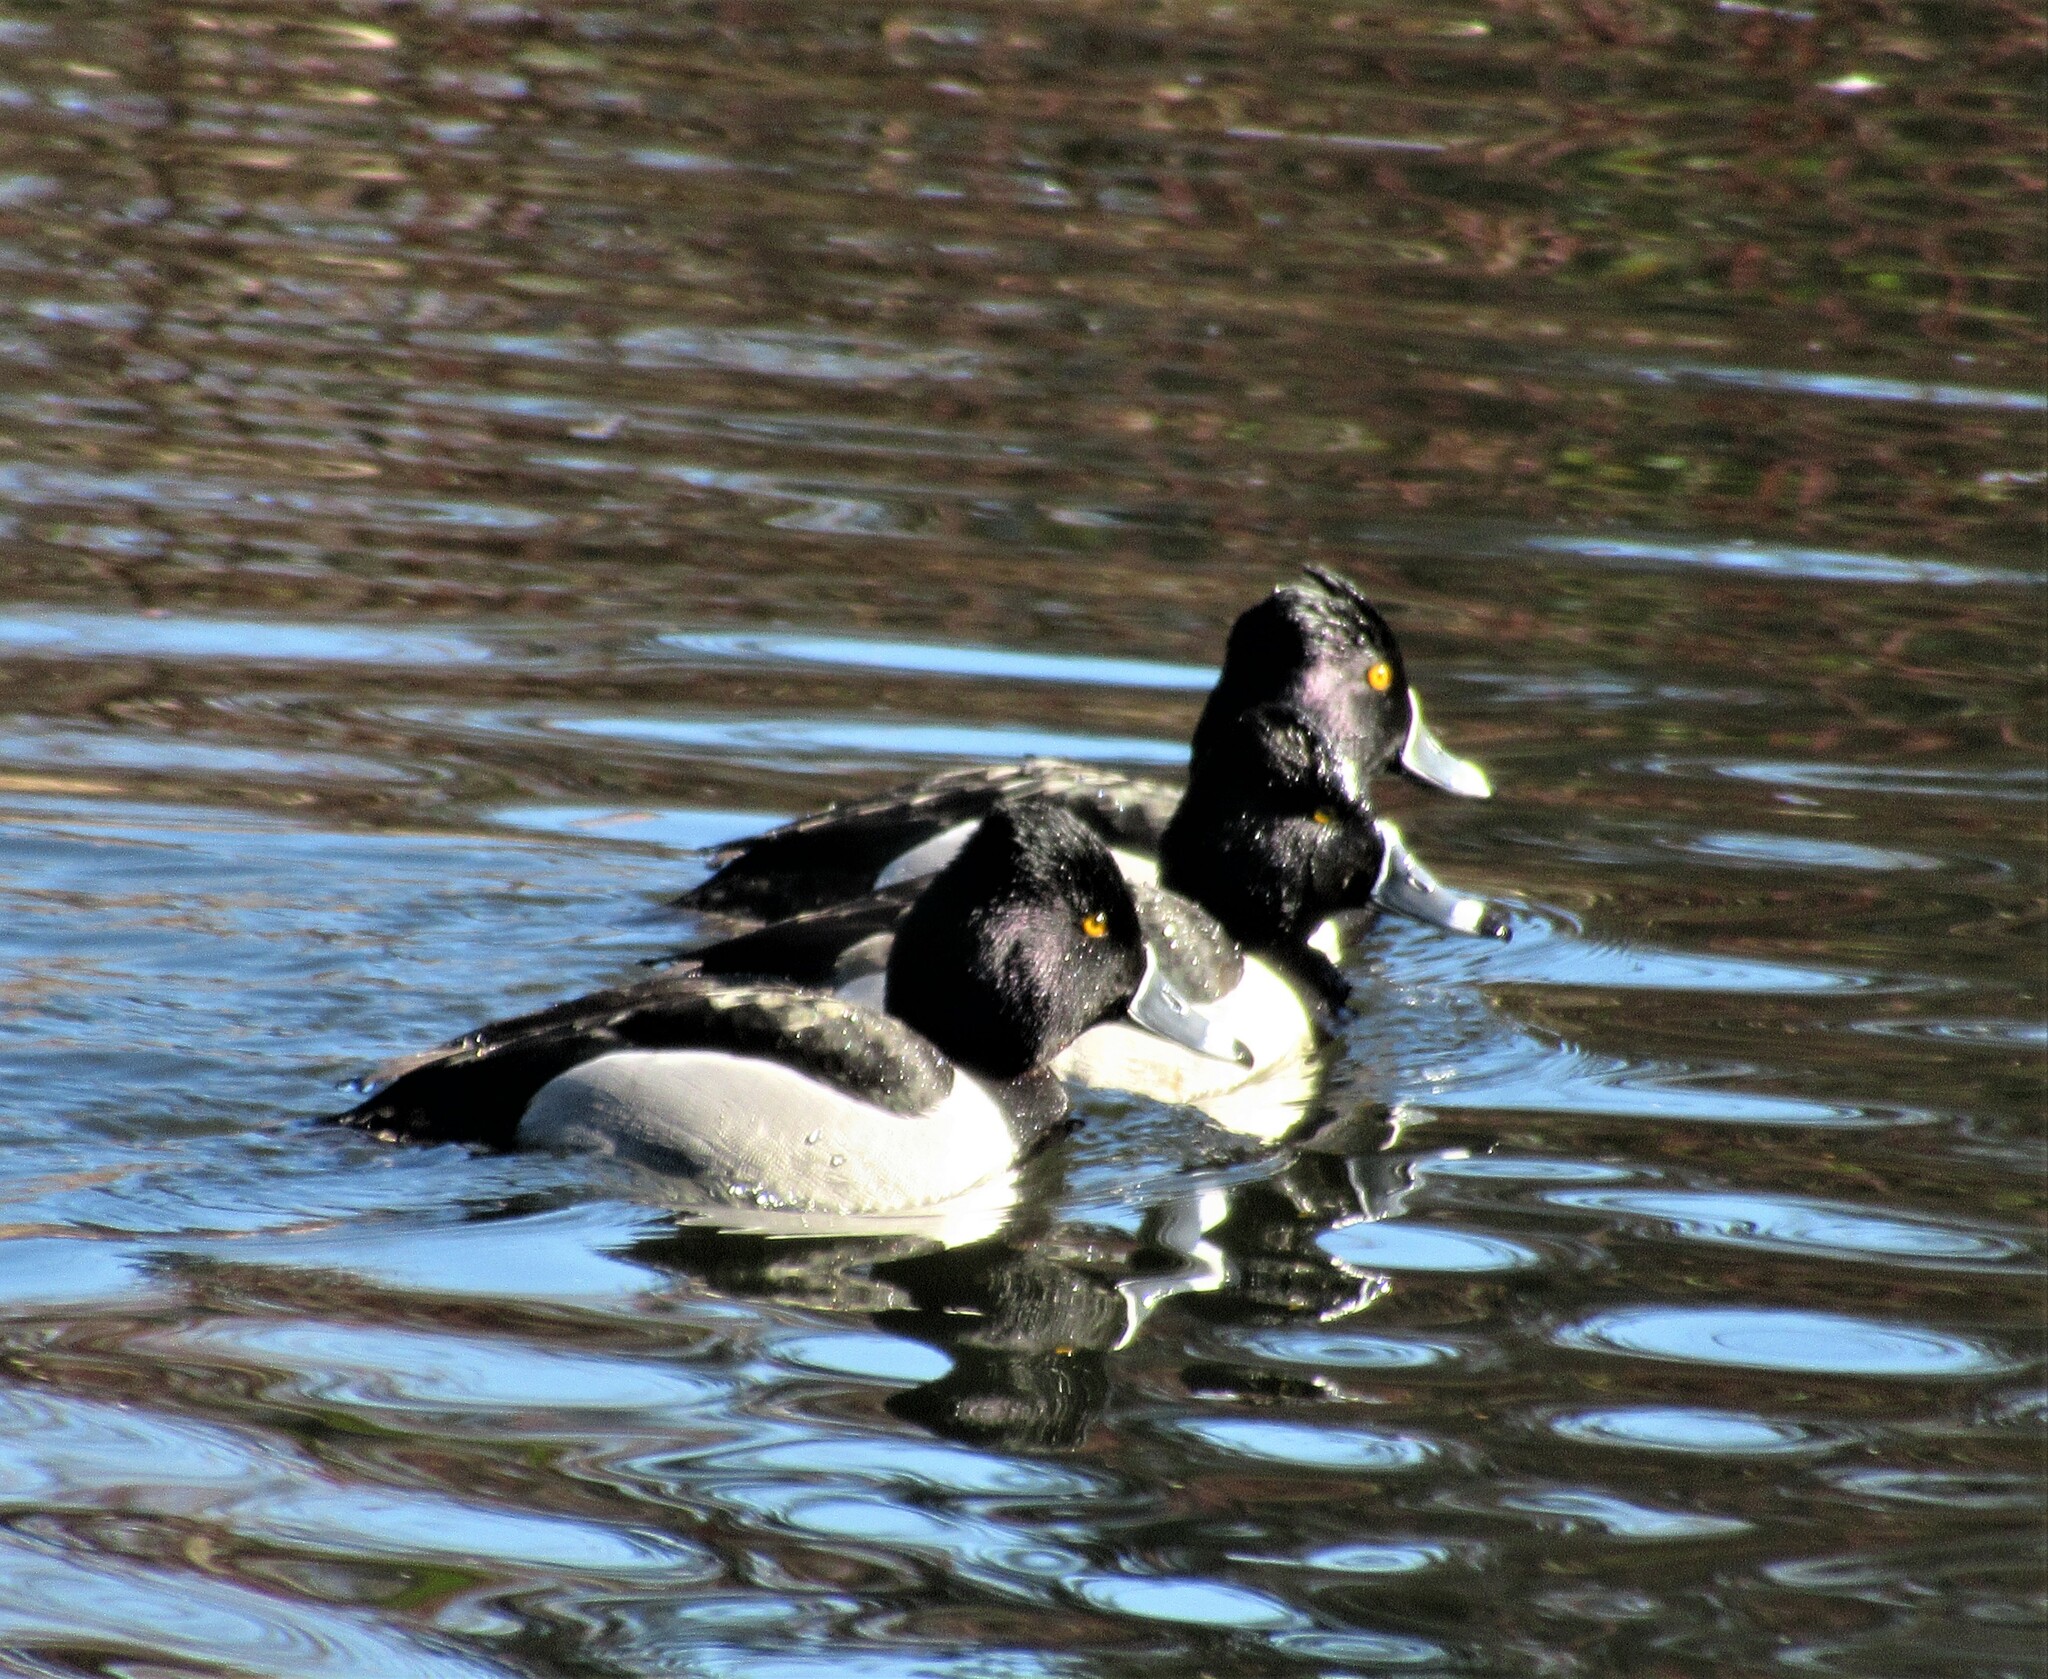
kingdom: Animalia
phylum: Chordata
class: Aves
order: Anseriformes
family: Anatidae
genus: Aythya
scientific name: Aythya collaris
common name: Ring-necked duck
